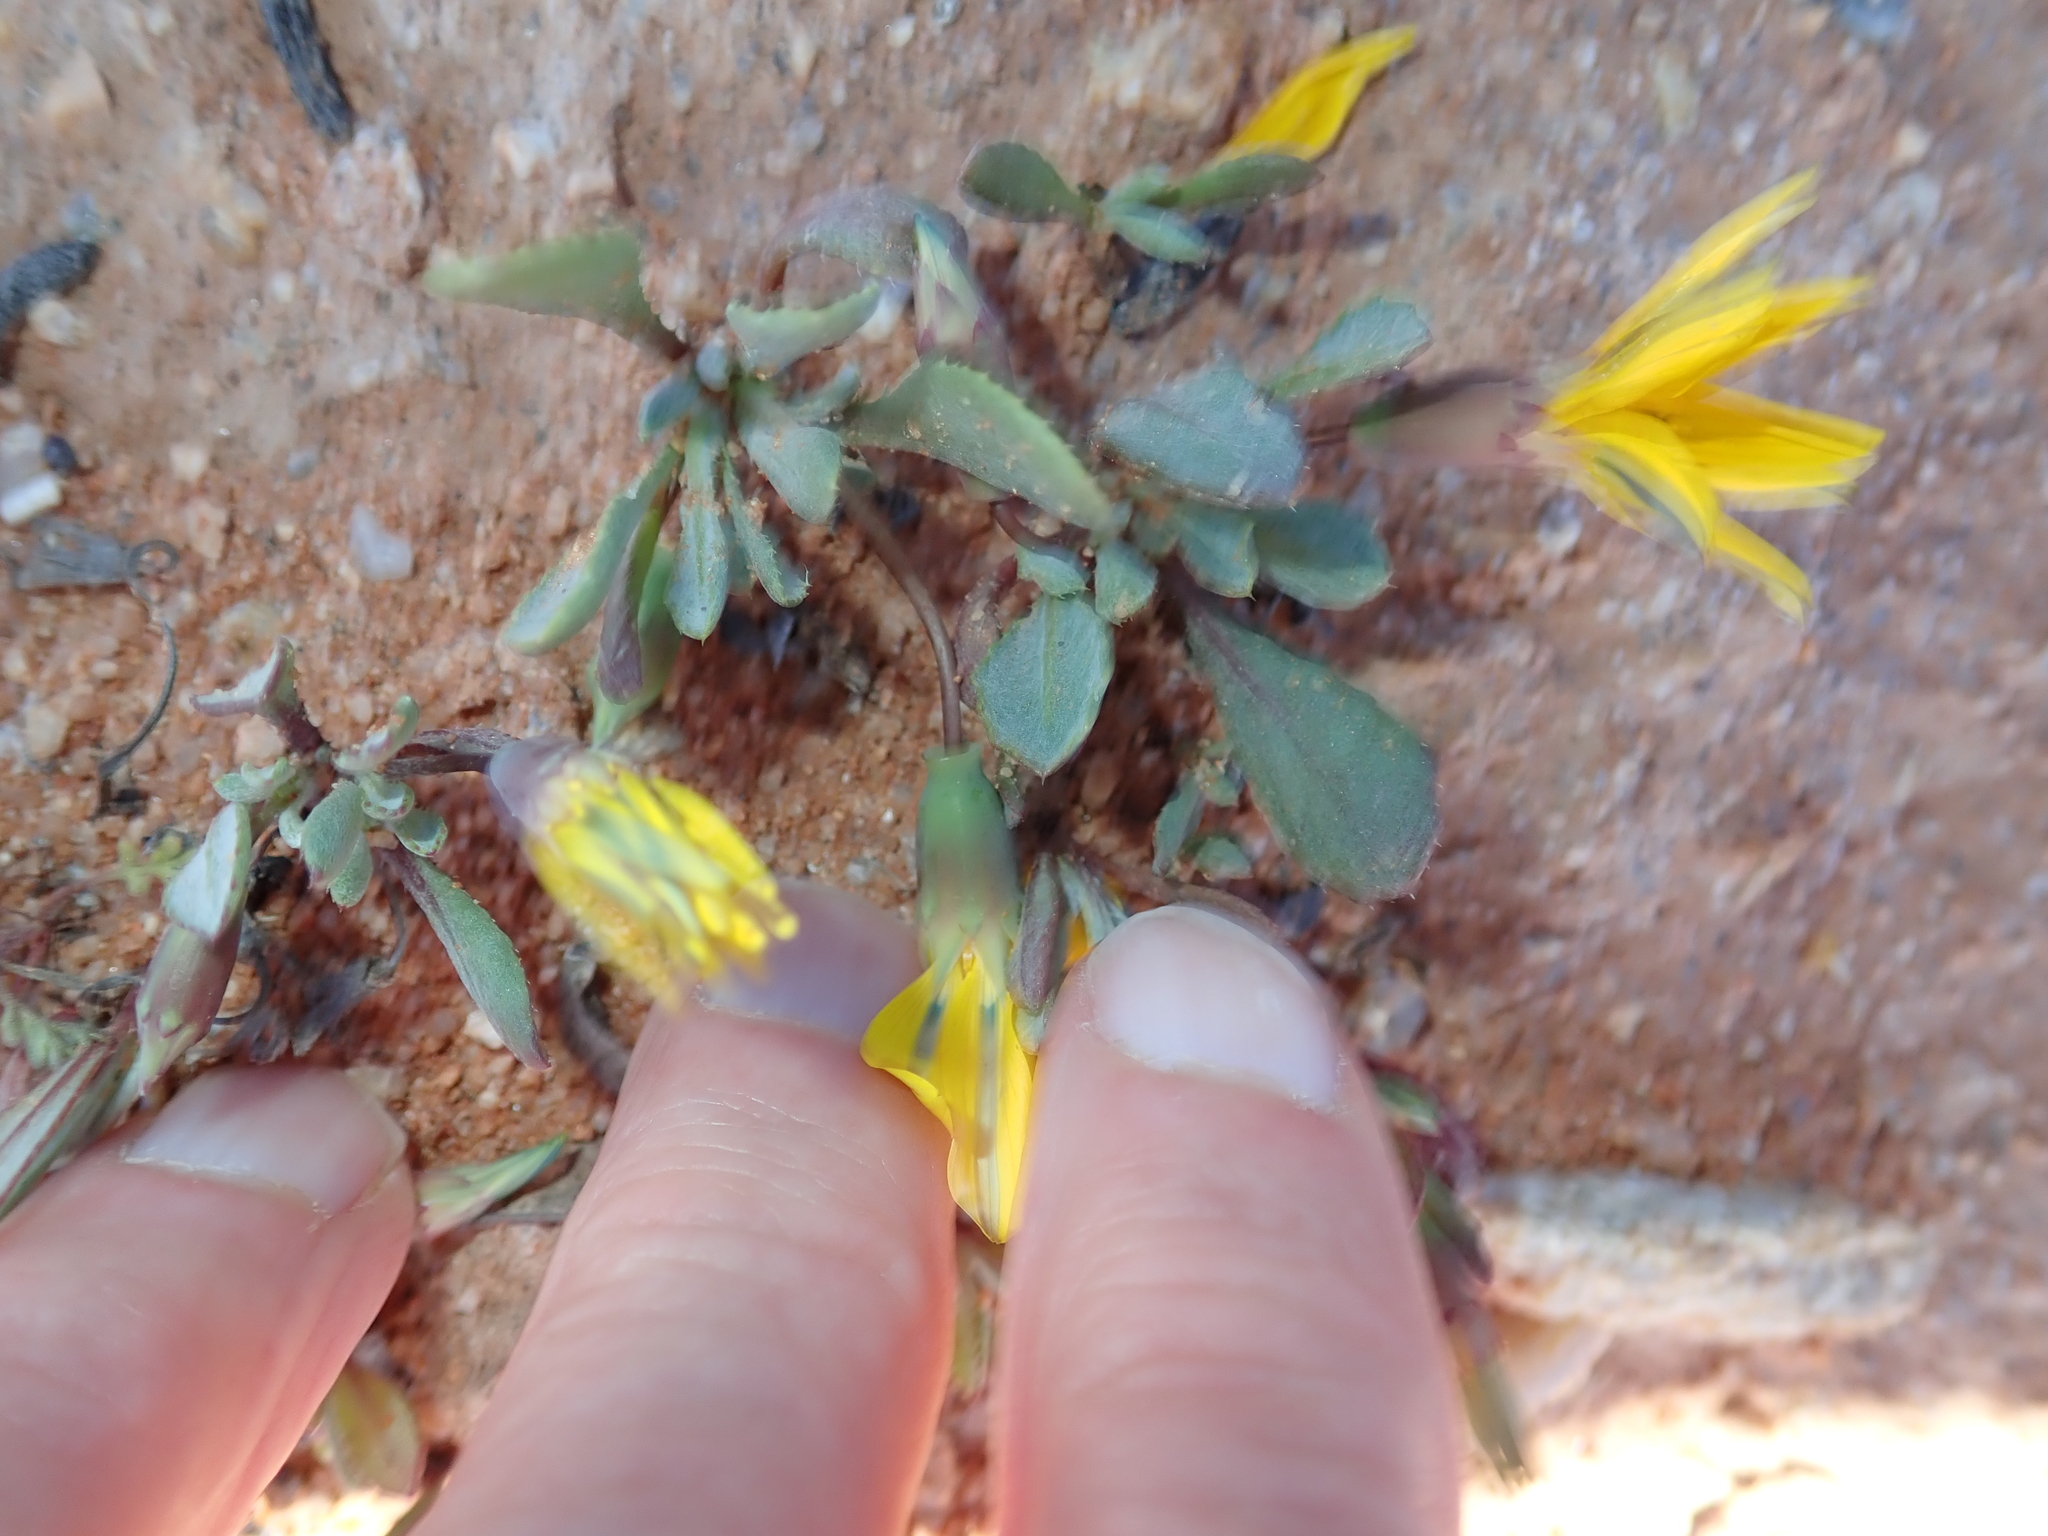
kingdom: Plantae
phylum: Tracheophyta
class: Magnoliopsida
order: Asterales
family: Asteraceae
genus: Gazania
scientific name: Gazania lichtensteinii
